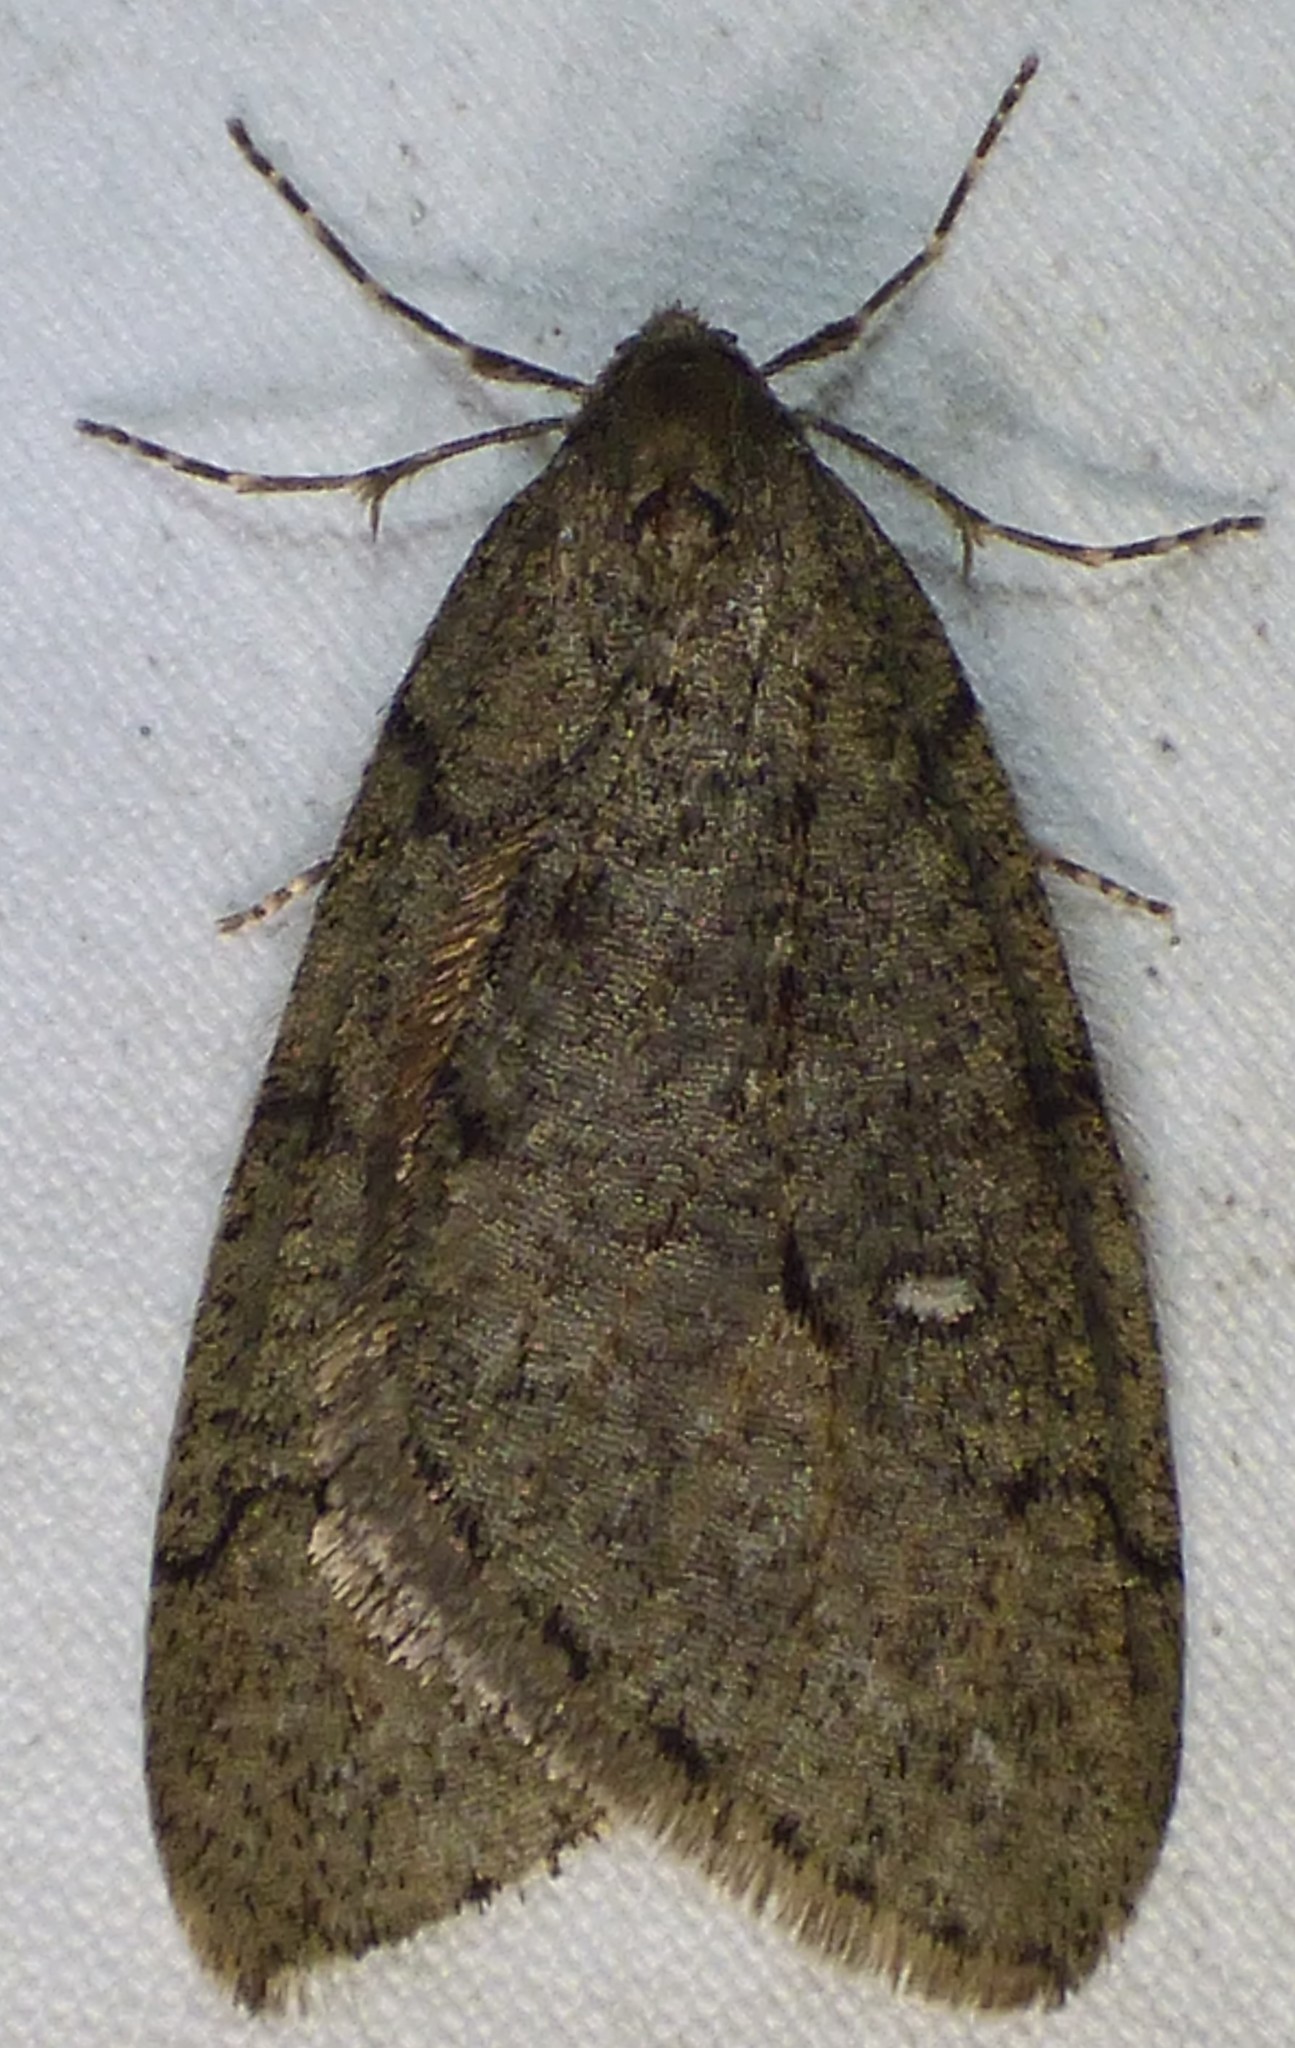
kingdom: Animalia
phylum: Arthropoda
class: Insecta
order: Lepidoptera
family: Geometridae
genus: Paleacrita
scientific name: Paleacrita merriccata
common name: White-spotted canker worm
